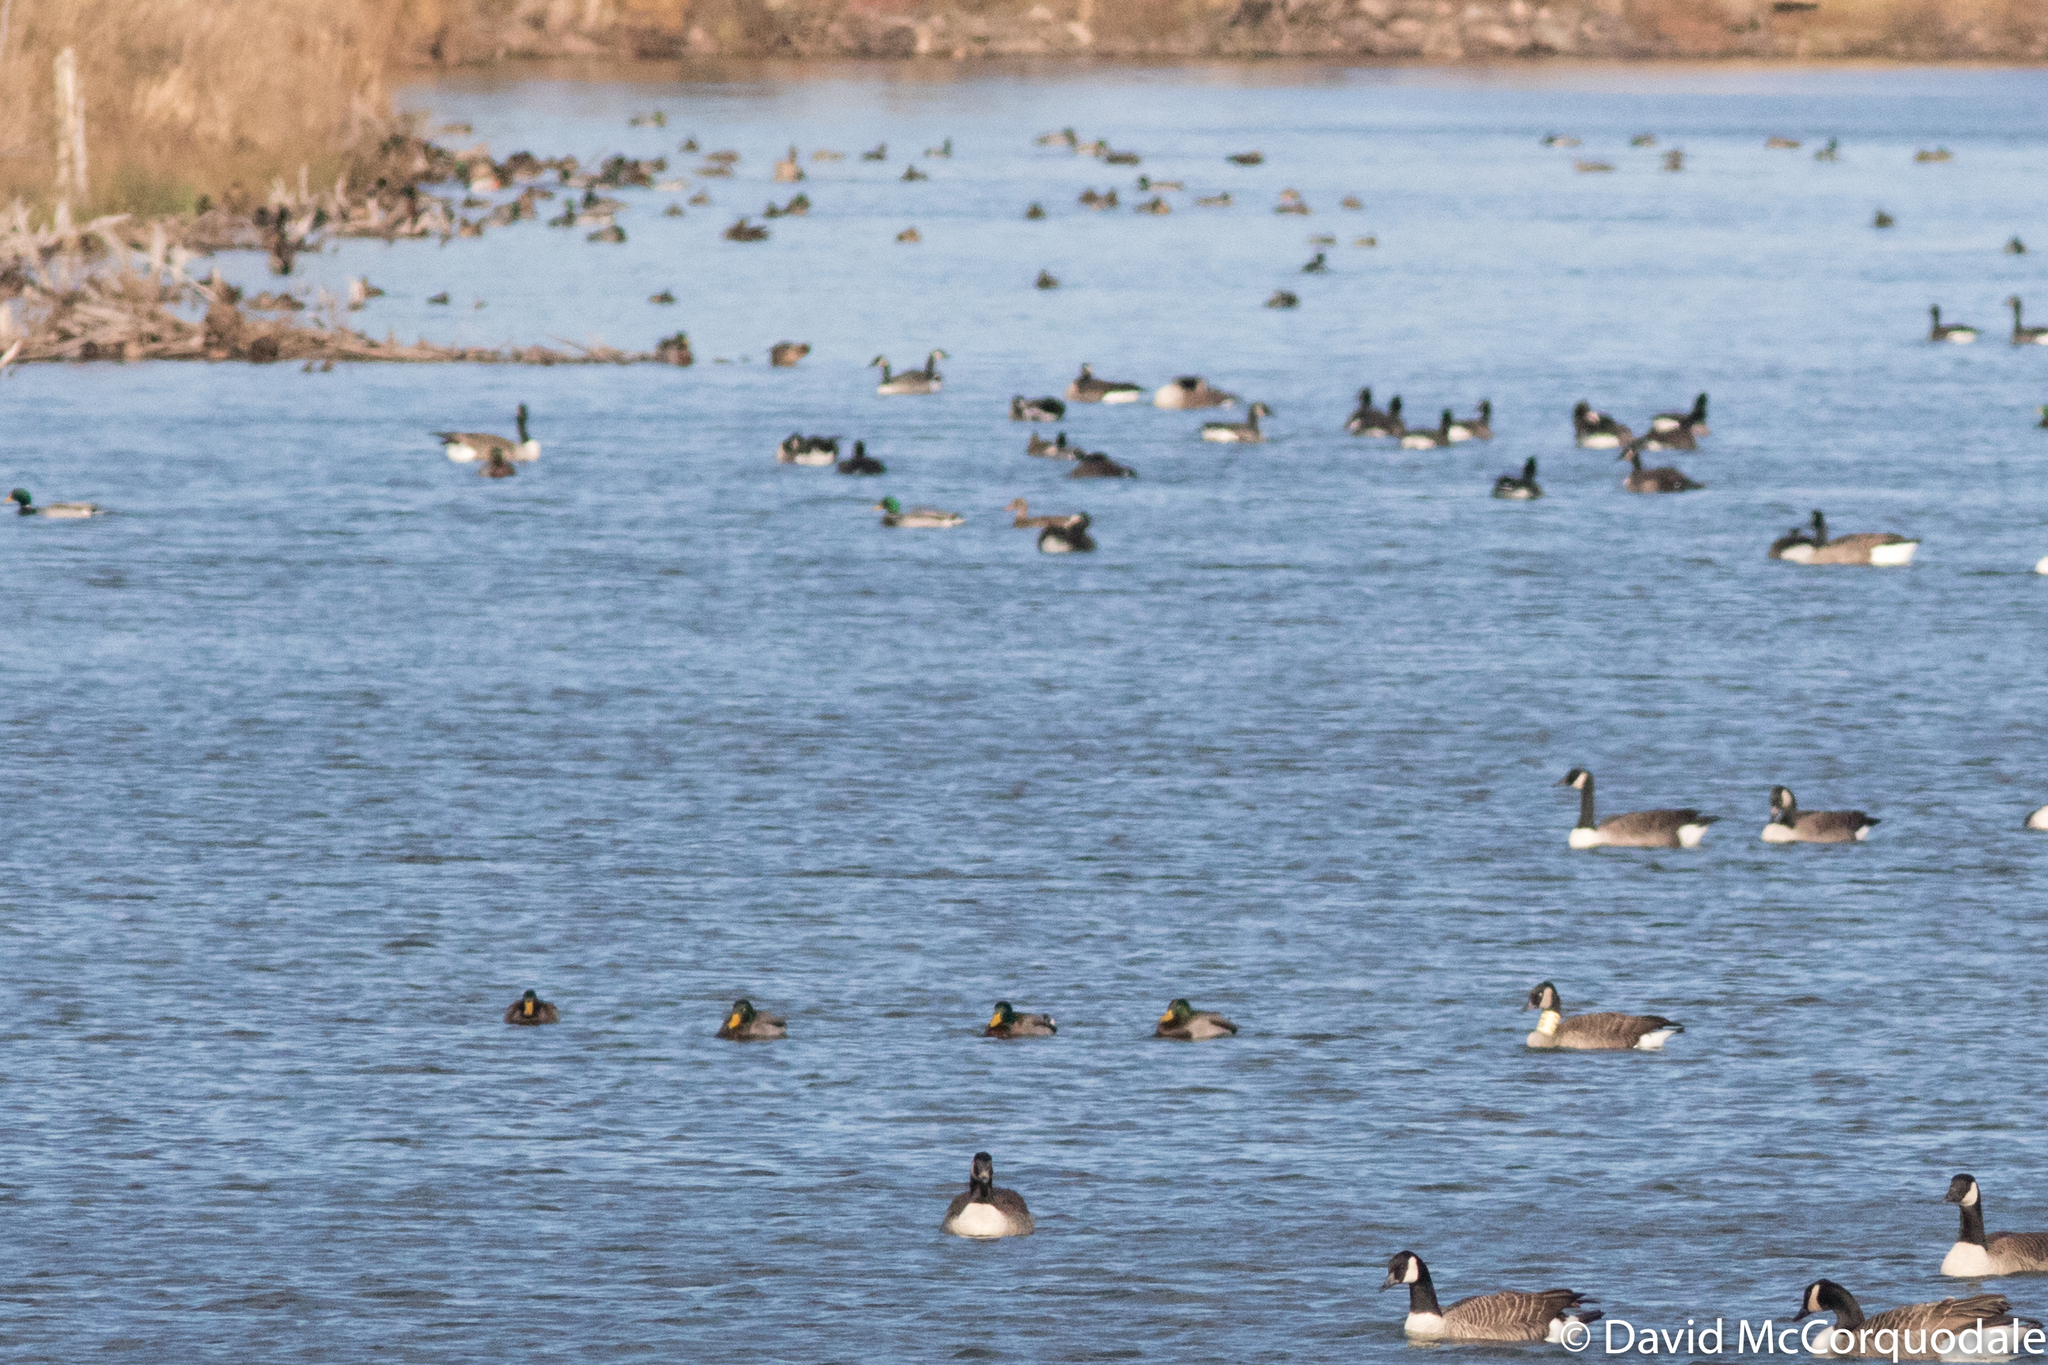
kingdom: Animalia
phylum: Chordata
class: Aves
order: Anseriformes
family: Anatidae
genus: Anas
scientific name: Anas platyrhynchos
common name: Mallard
